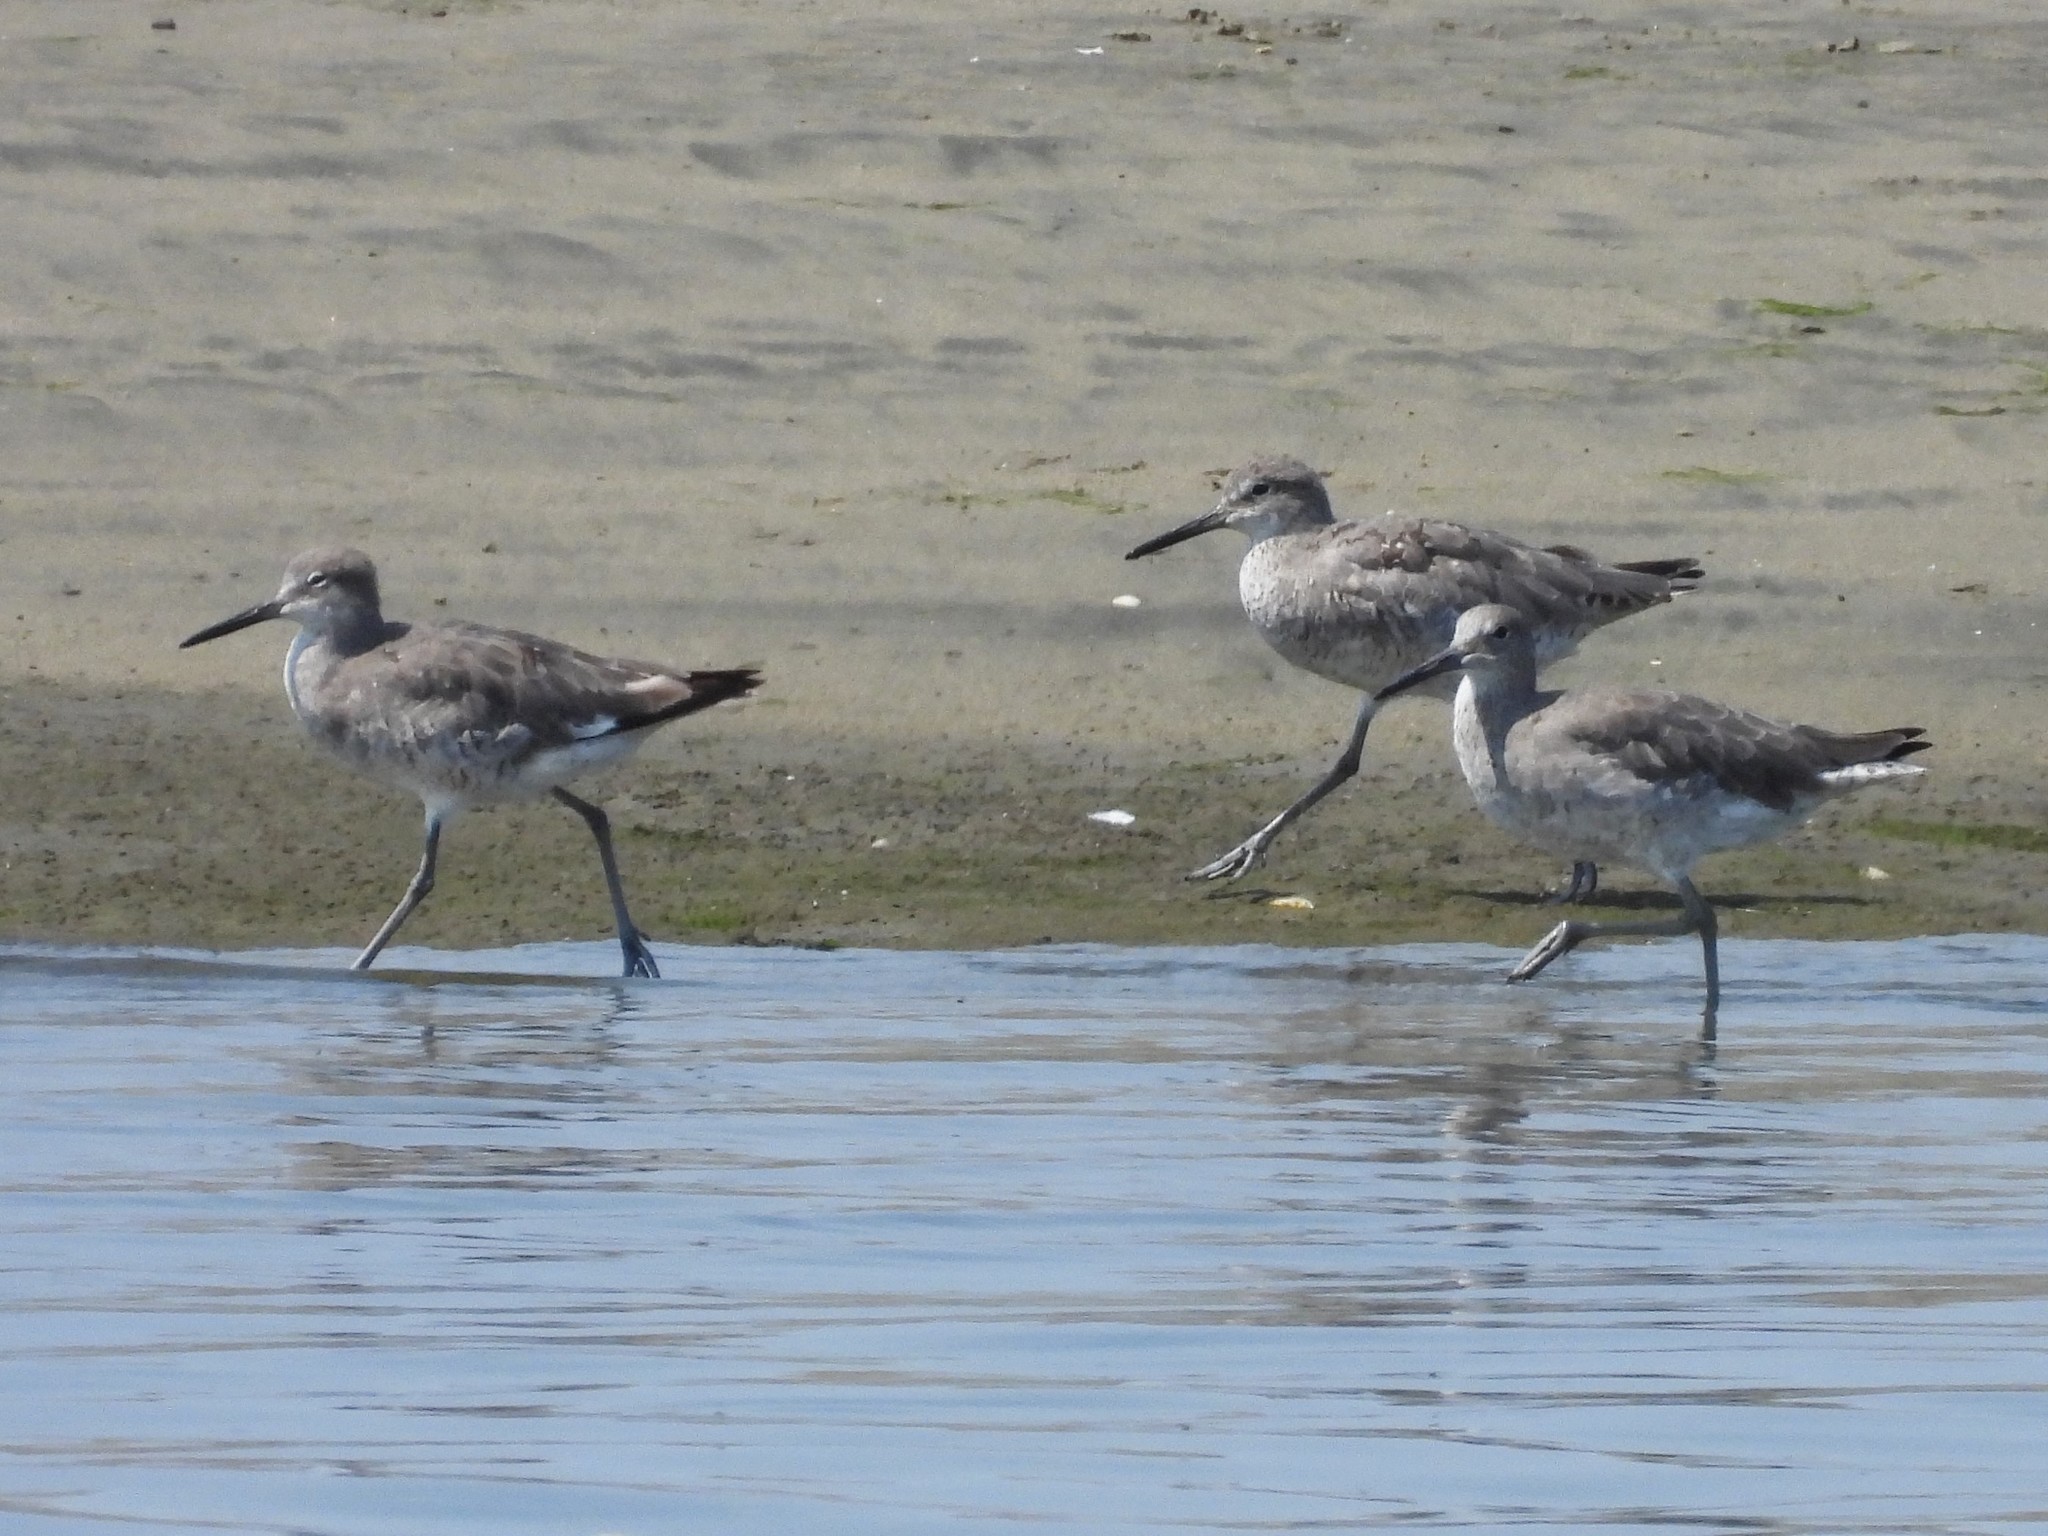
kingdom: Animalia
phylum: Chordata
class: Aves
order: Charadriiformes
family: Scolopacidae
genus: Tringa
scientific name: Tringa semipalmata
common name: Willet
